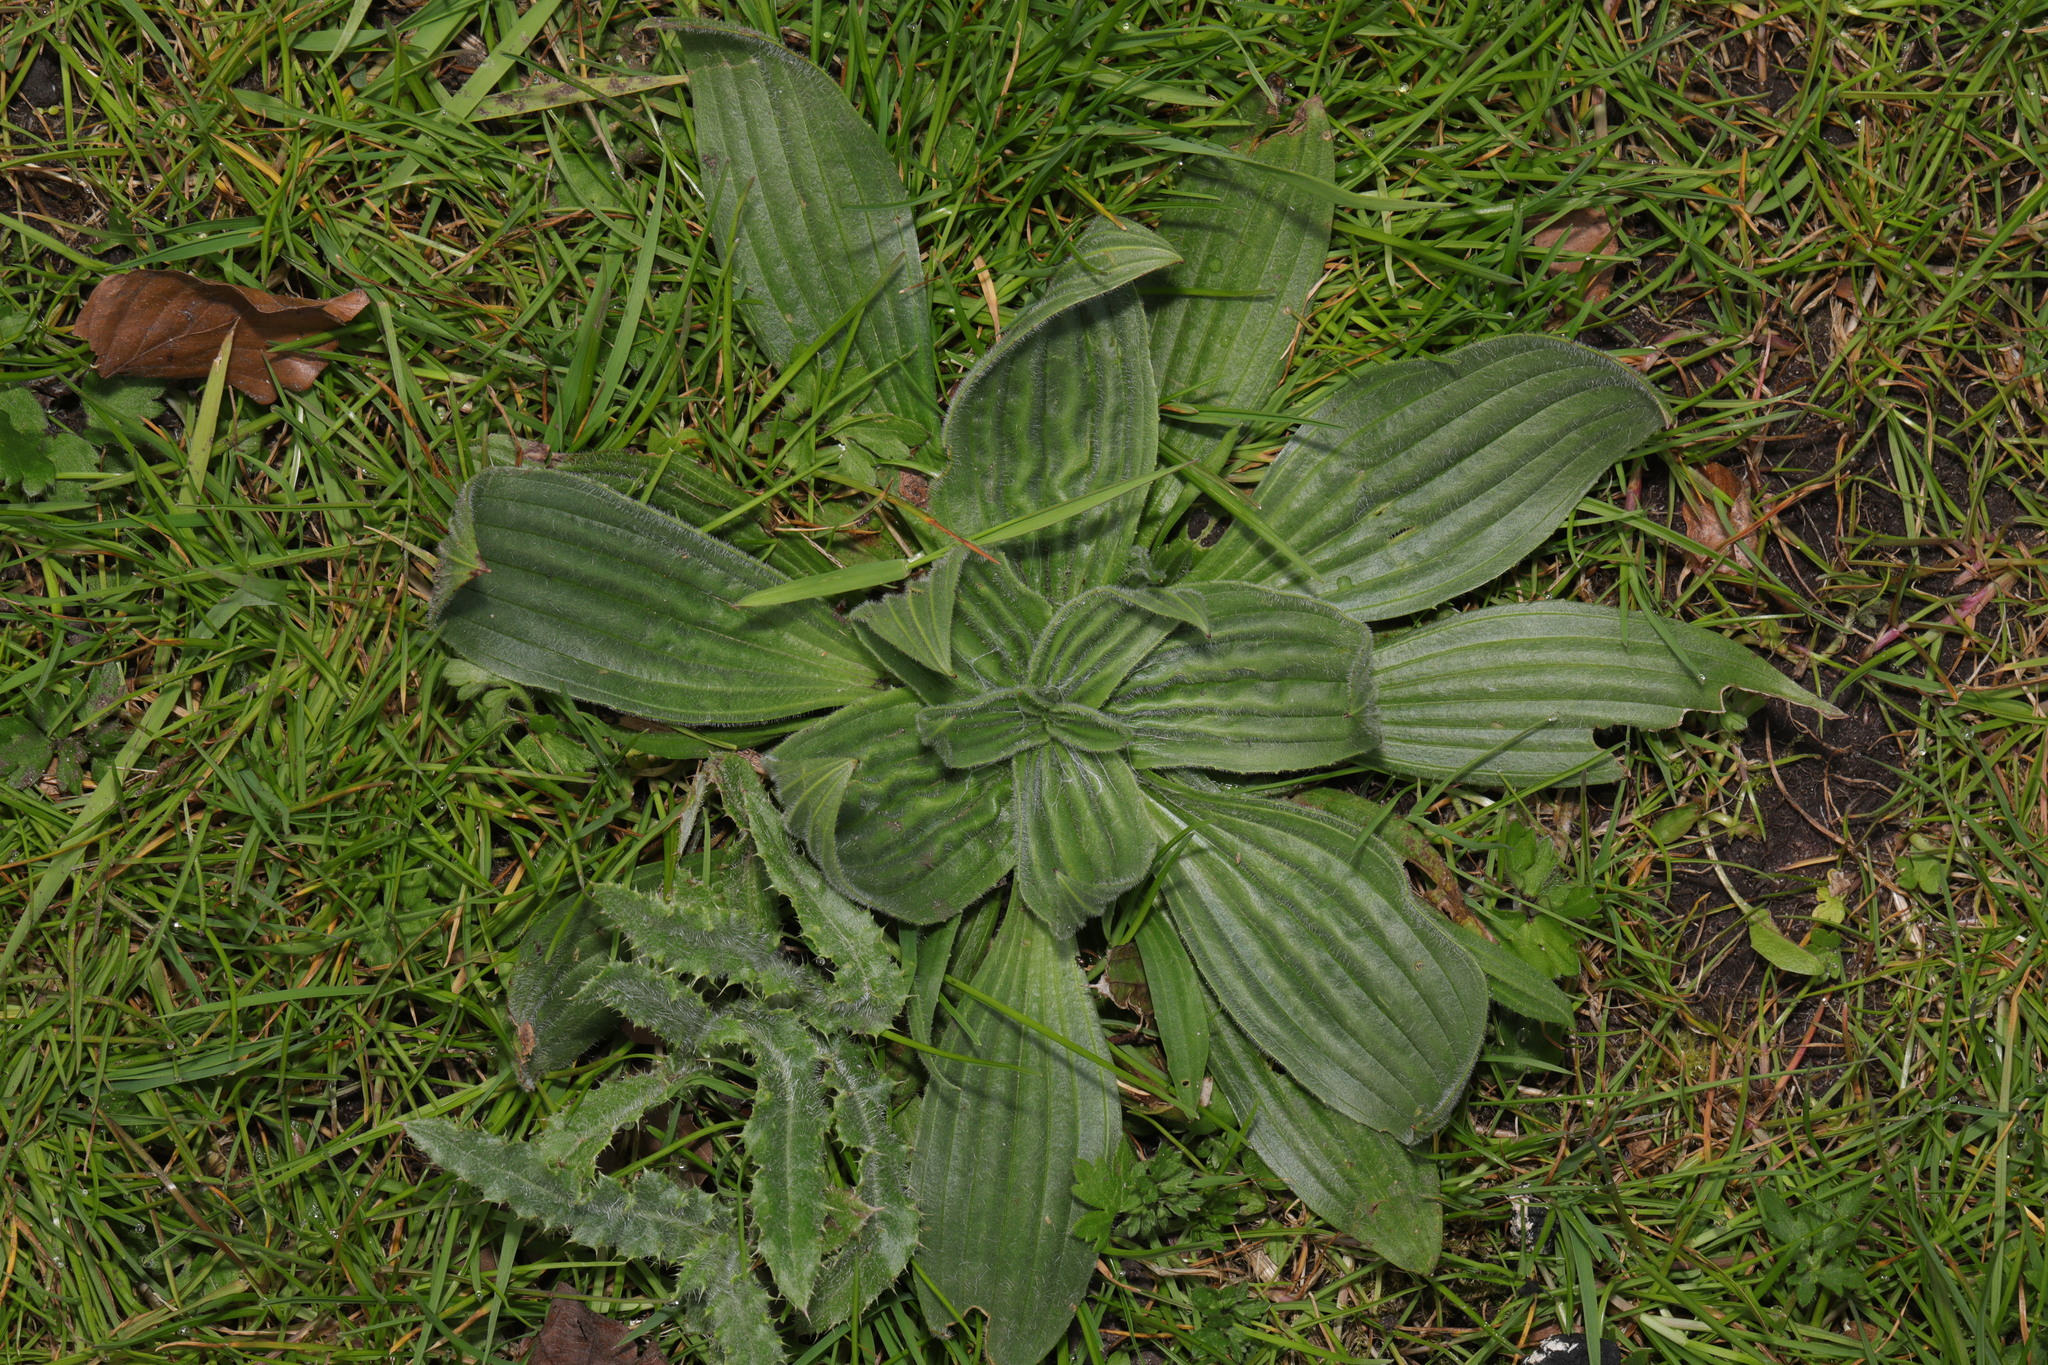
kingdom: Plantae
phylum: Tracheophyta
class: Magnoliopsida
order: Lamiales
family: Plantaginaceae
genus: Plantago
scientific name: Plantago lanceolata
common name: Ribwort plantain
